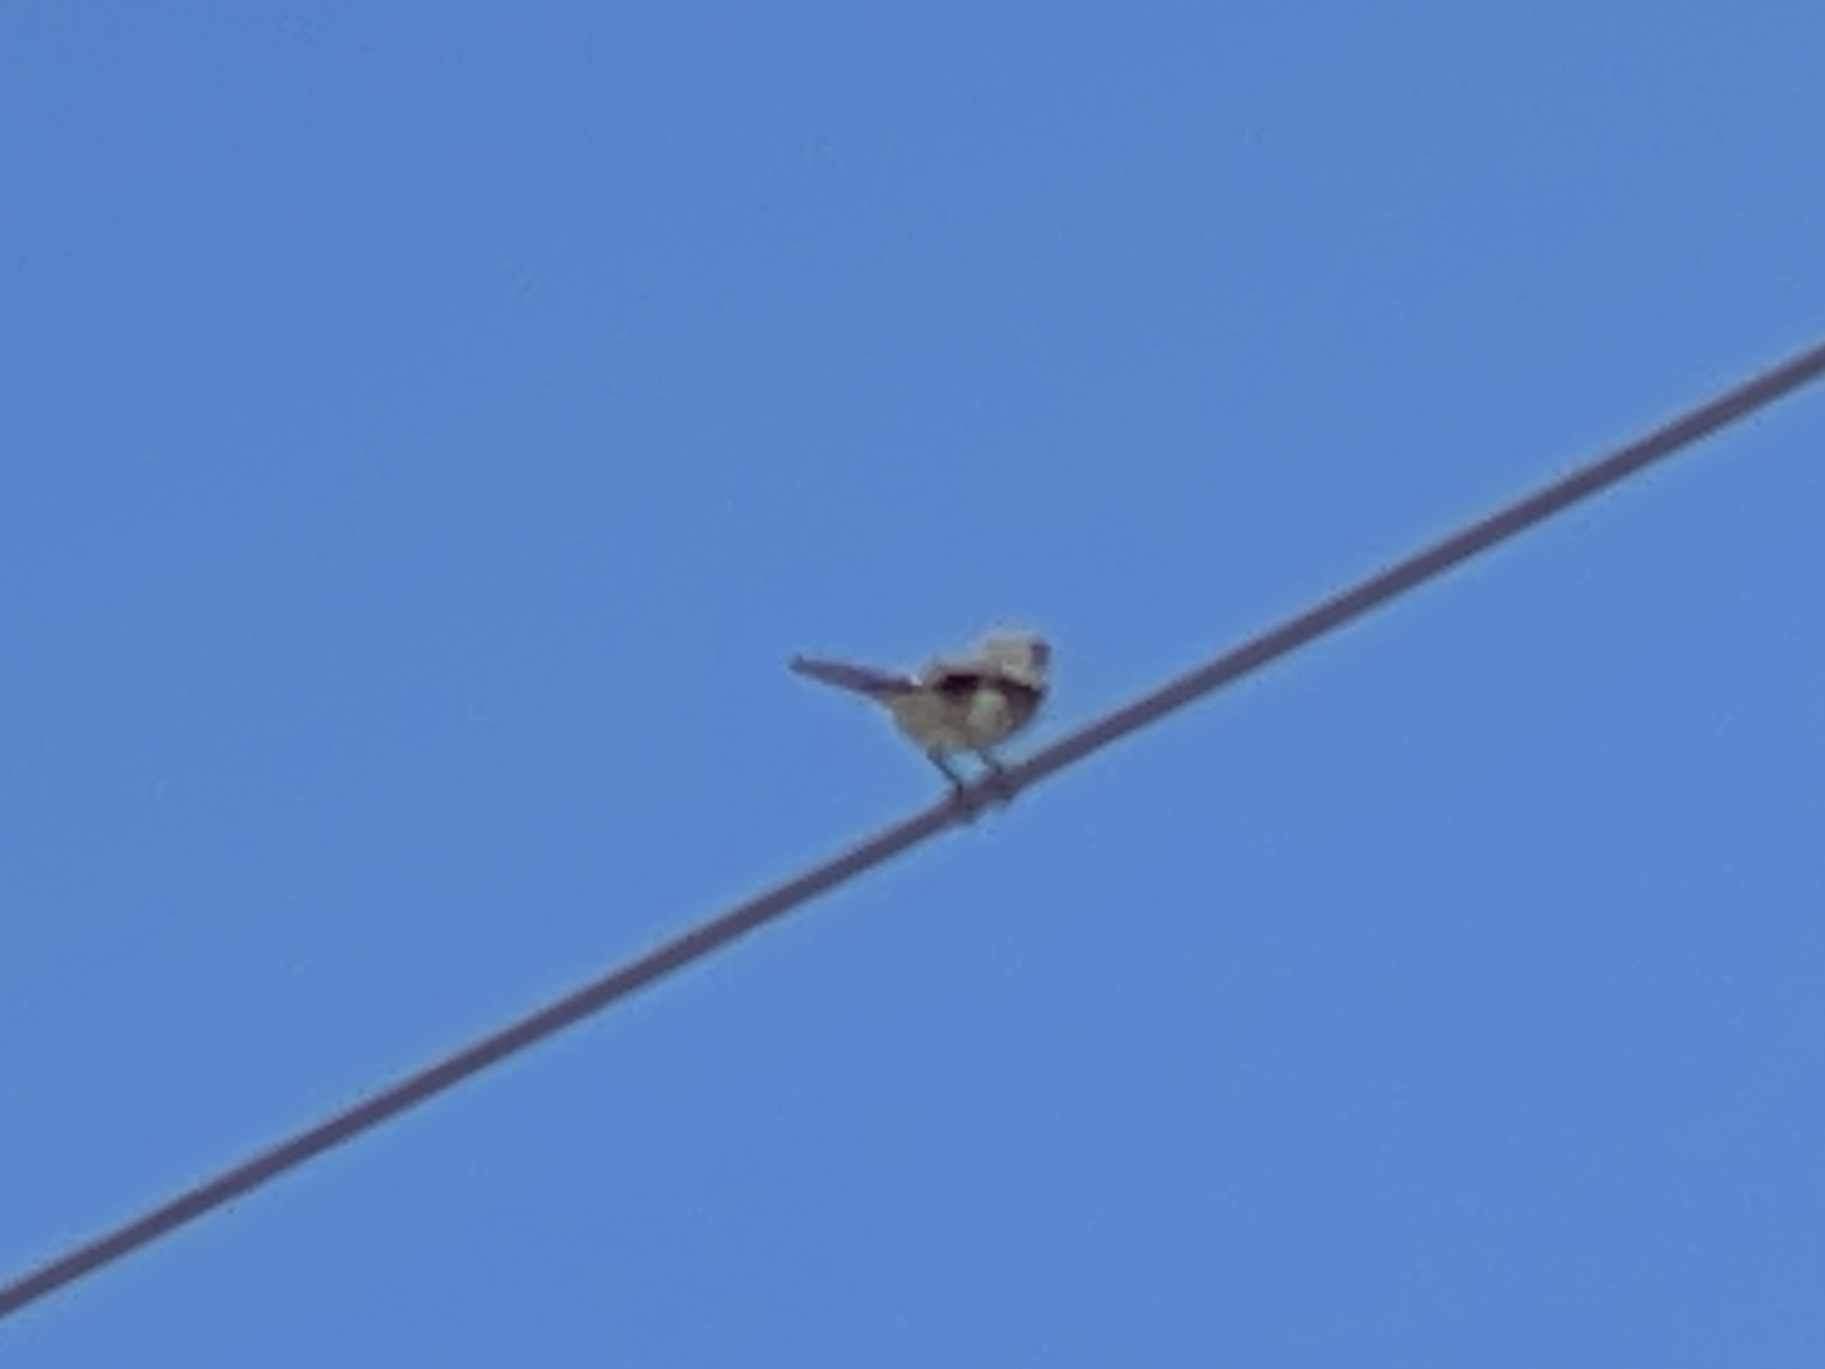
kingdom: Animalia
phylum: Chordata
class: Aves
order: Passeriformes
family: Laniidae
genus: Lanius
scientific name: Lanius ludovicianus
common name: Loggerhead shrike
